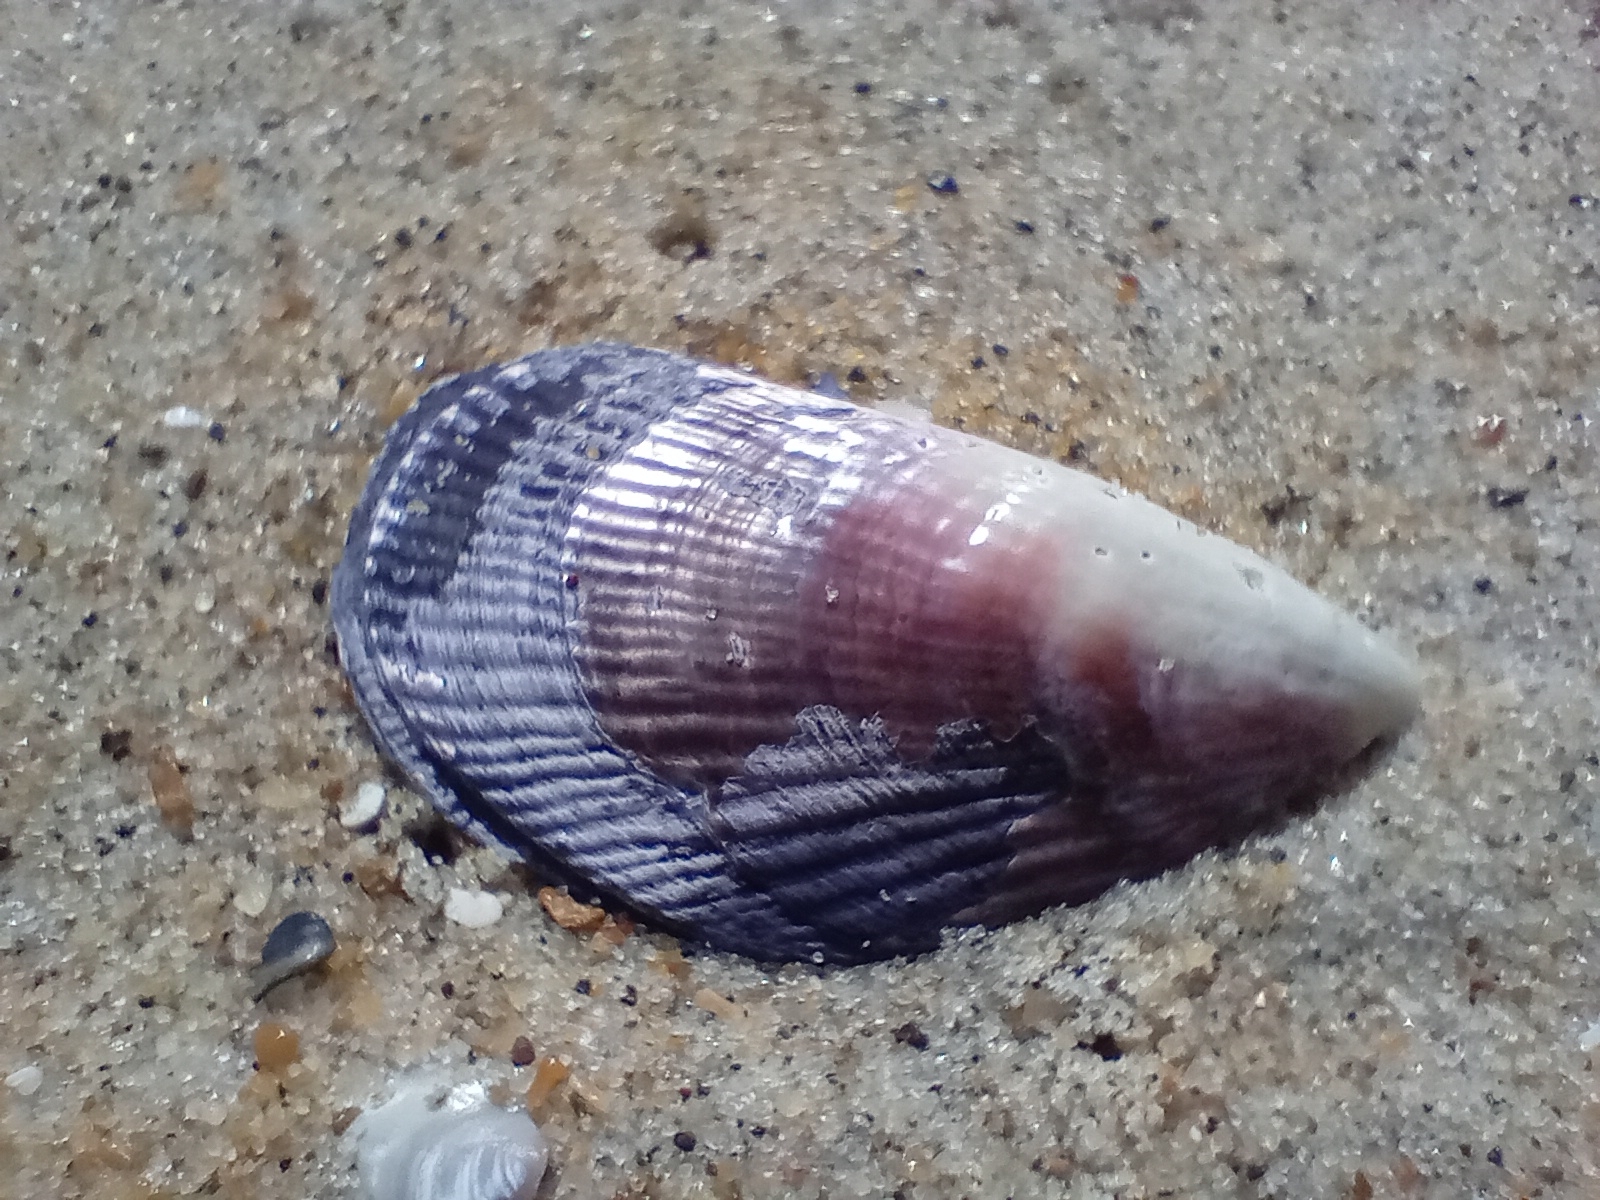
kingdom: Animalia
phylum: Mollusca
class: Bivalvia
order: Mytilida
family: Mytilidae
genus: Aulacomya
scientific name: Aulacomya maoriana
